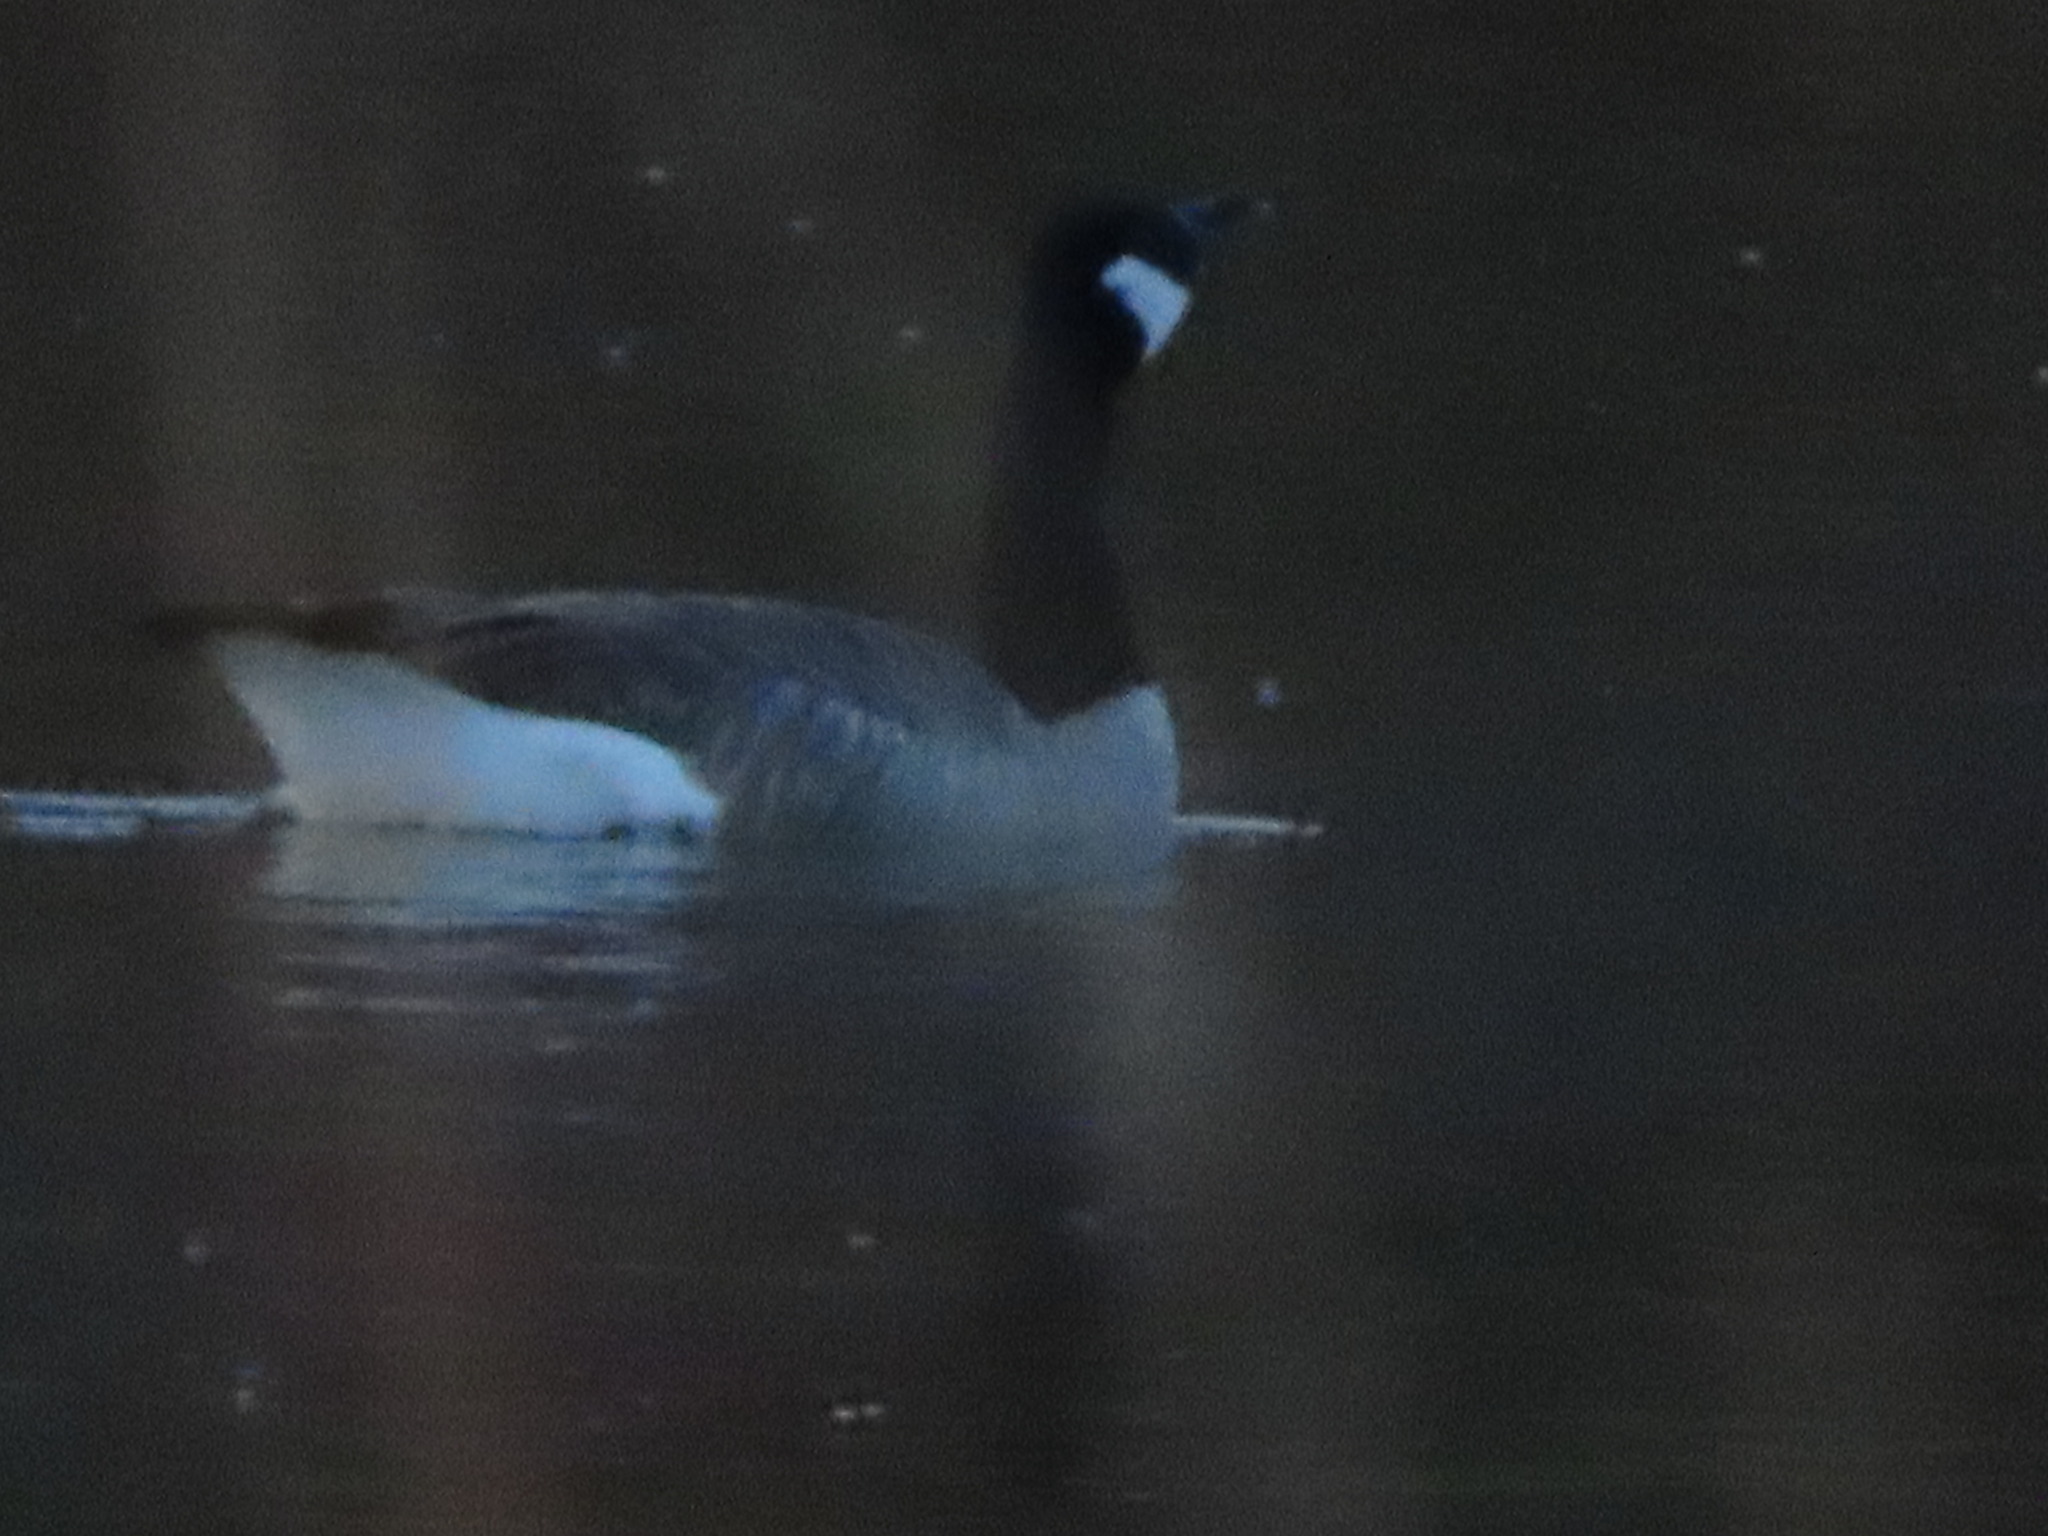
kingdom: Animalia
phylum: Chordata
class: Aves
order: Anseriformes
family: Anatidae
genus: Branta
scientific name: Branta canadensis
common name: Canada goose
